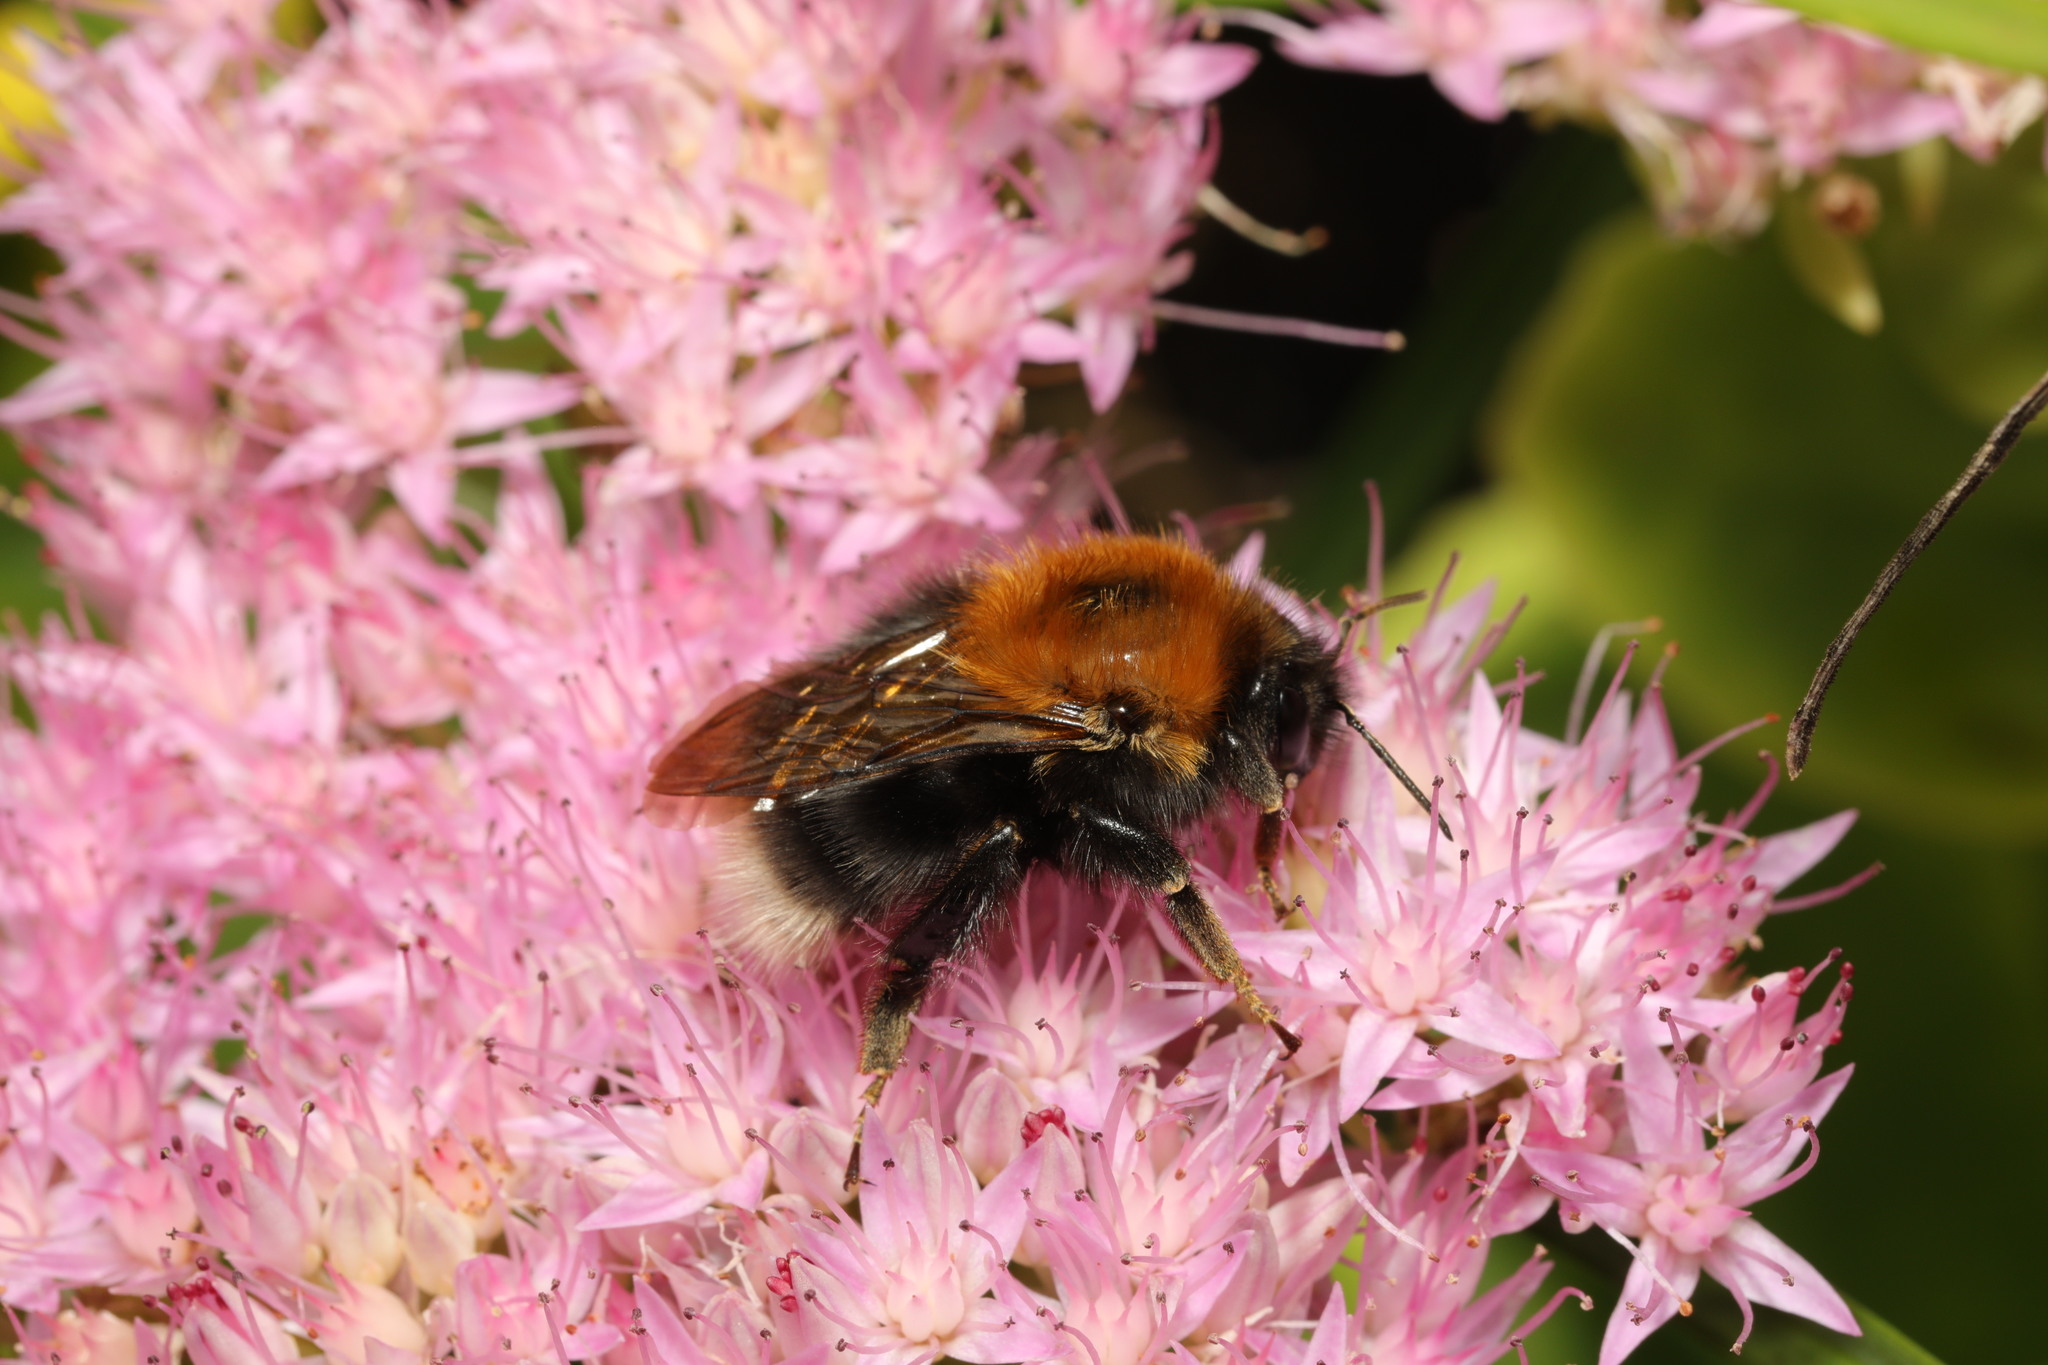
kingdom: Animalia
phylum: Arthropoda
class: Insecta
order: Hymenoptera
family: Apidae
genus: Bombus
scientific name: Bombus hypnorum
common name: New garden bumblebee
